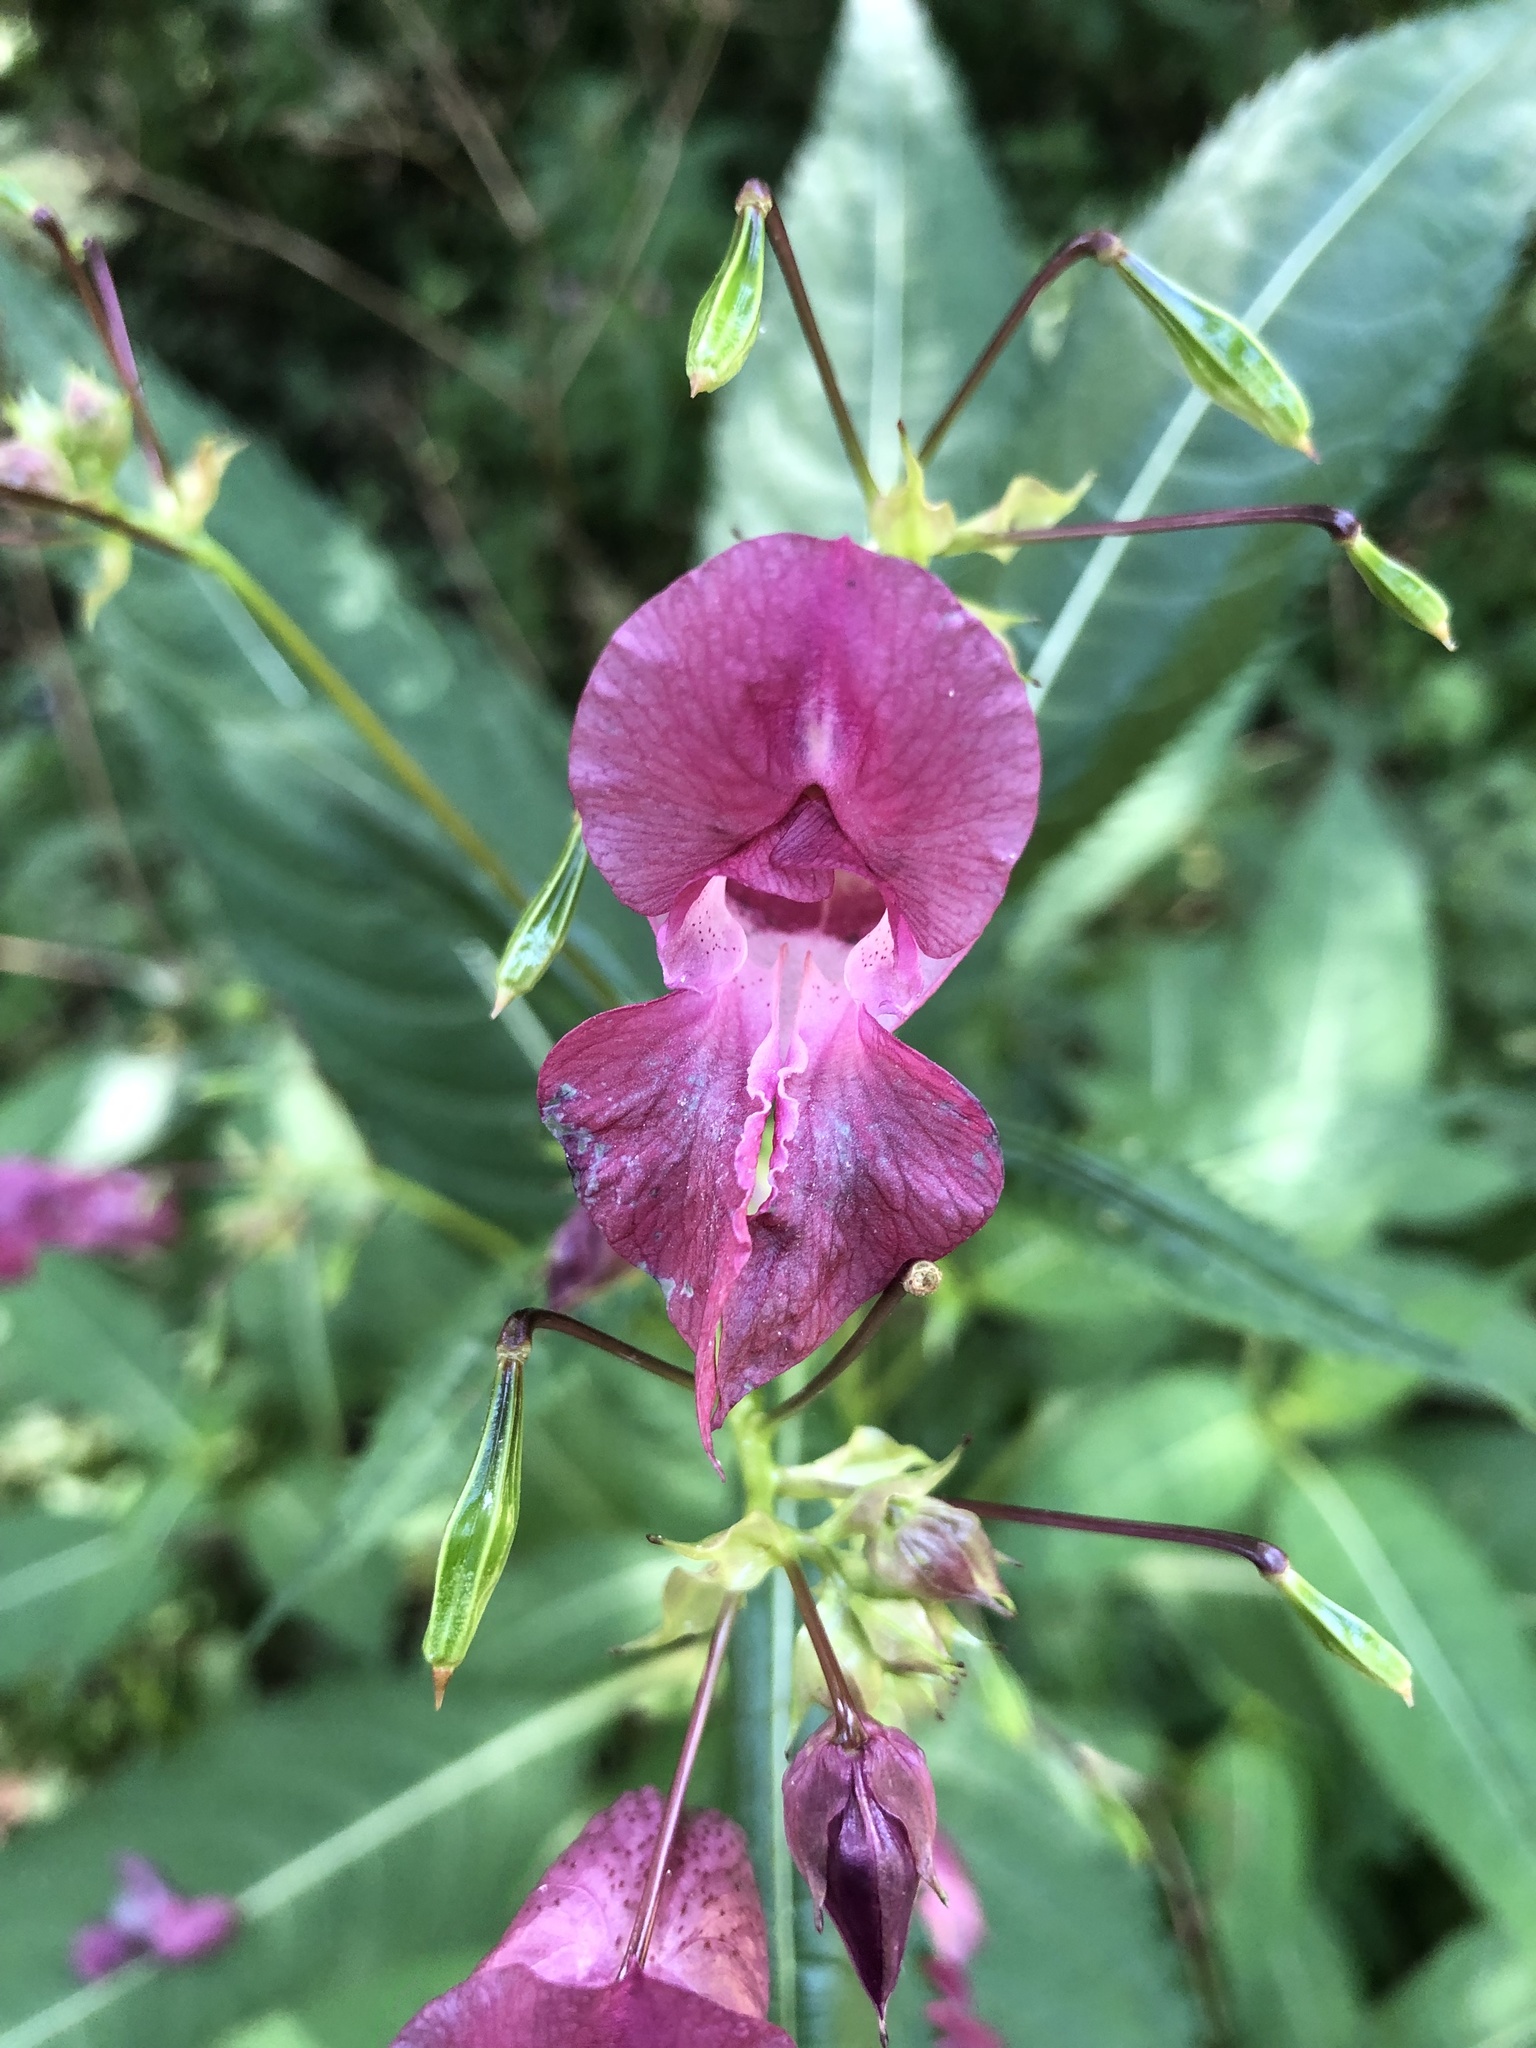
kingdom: Plantae
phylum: Tracheophyta
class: Magnoliopsida
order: Ericales
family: Balsaminaceae
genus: Impatiens
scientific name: Impatiens glandulifera
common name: Himalayan balsam
